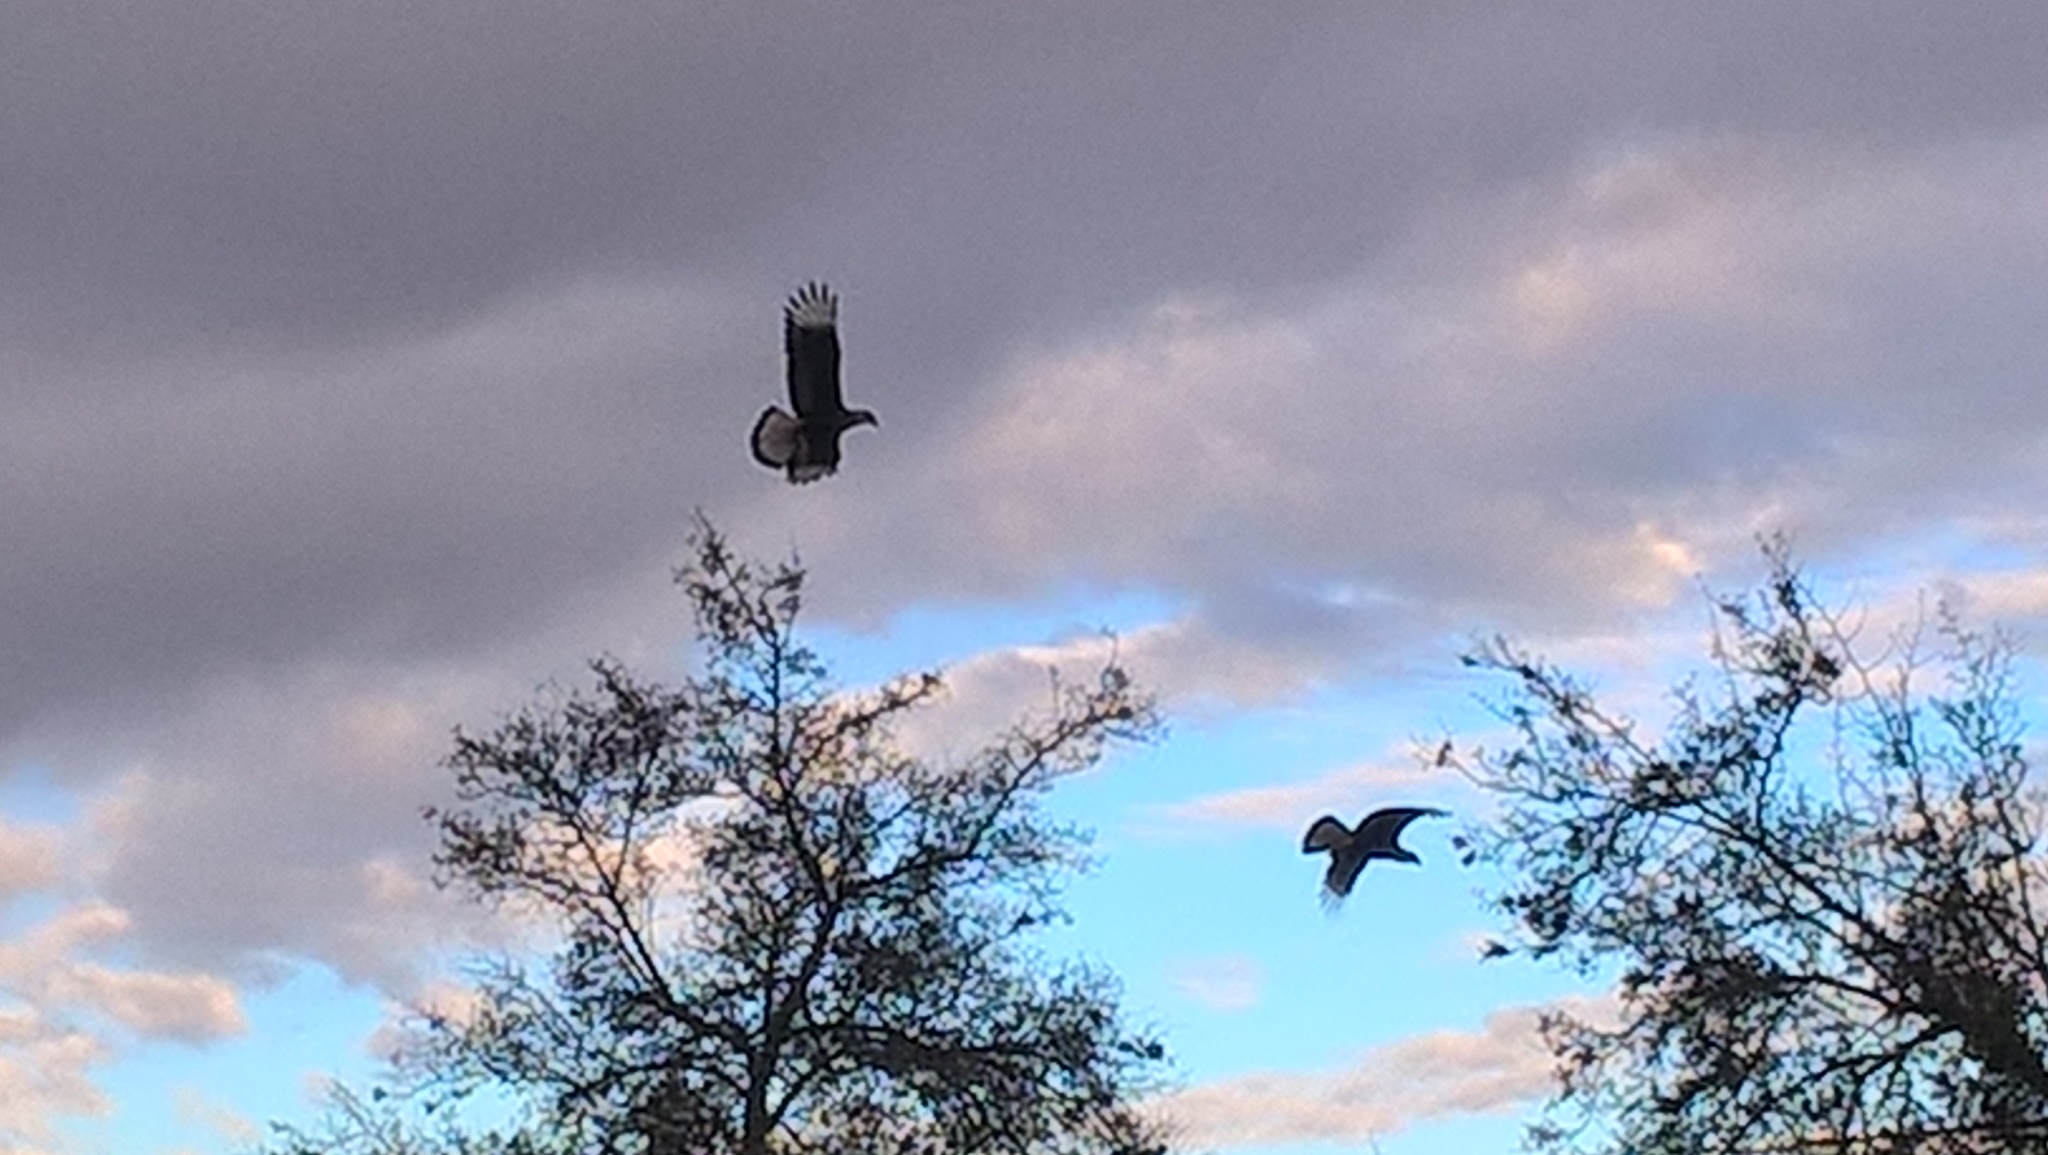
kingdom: Animalia
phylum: Chordata
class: Aves
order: Falconiformes
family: Falconidae
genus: Caracara
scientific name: Caracara plancus
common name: Southern caracara
